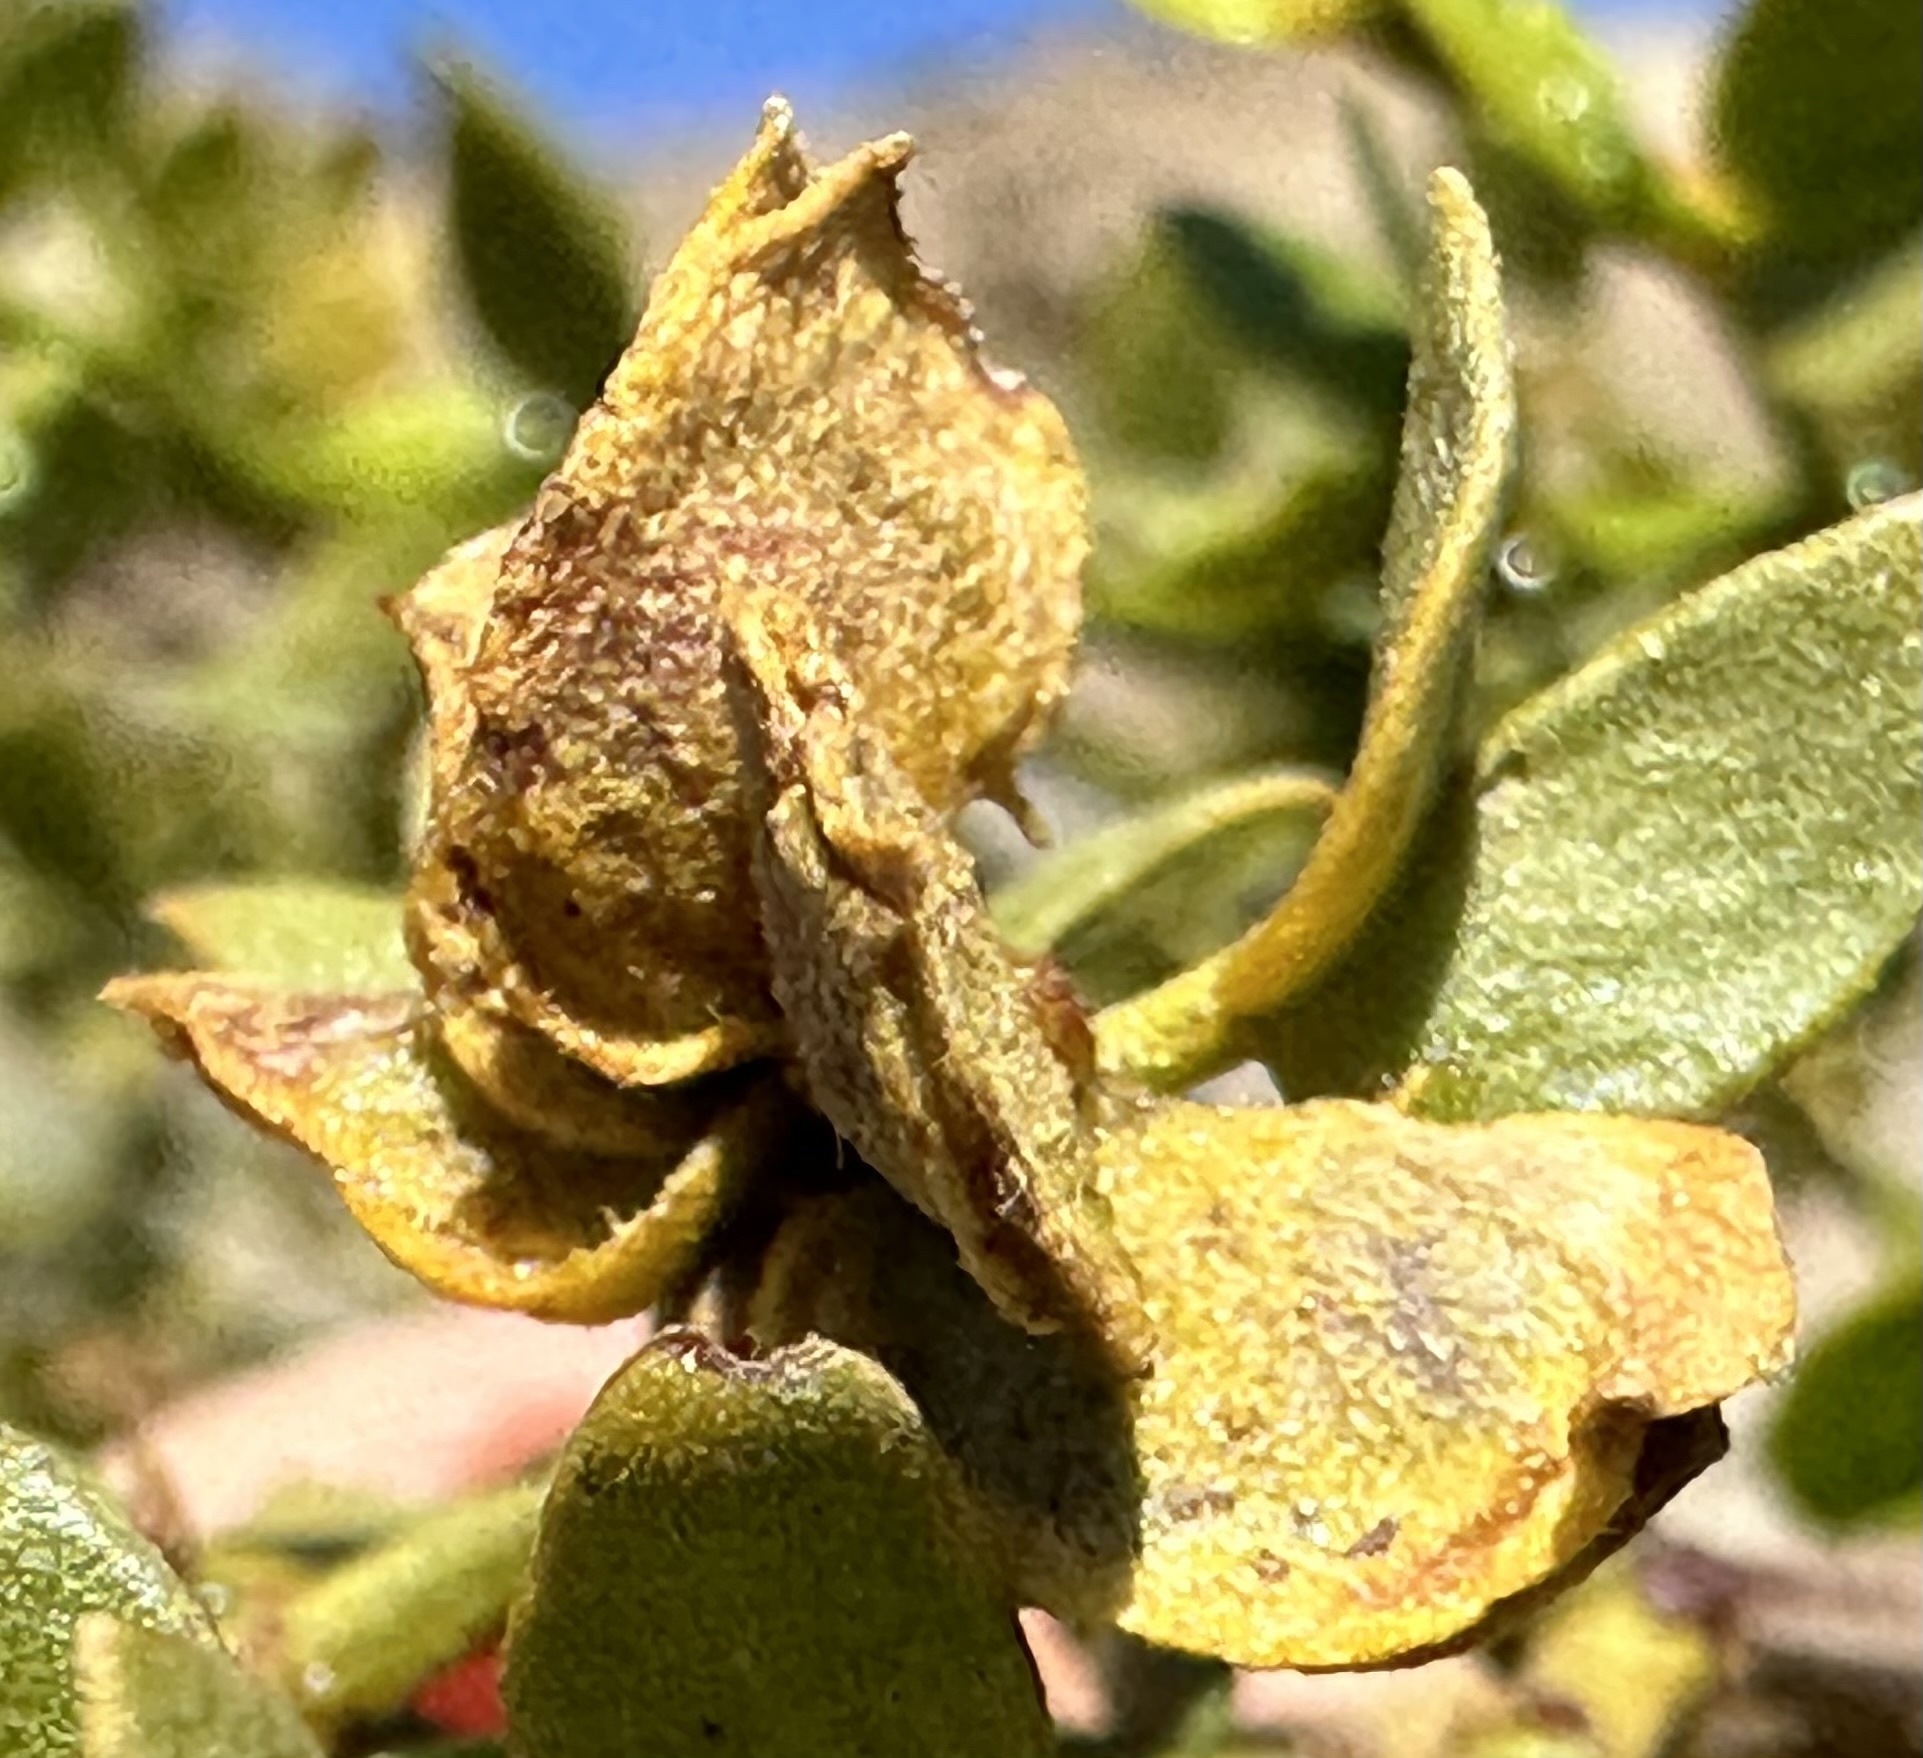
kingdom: Animalia
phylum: Arthropoda
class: Insecta
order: Diptera
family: Cecidomyiidae
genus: Contarinia
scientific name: Contarinia
